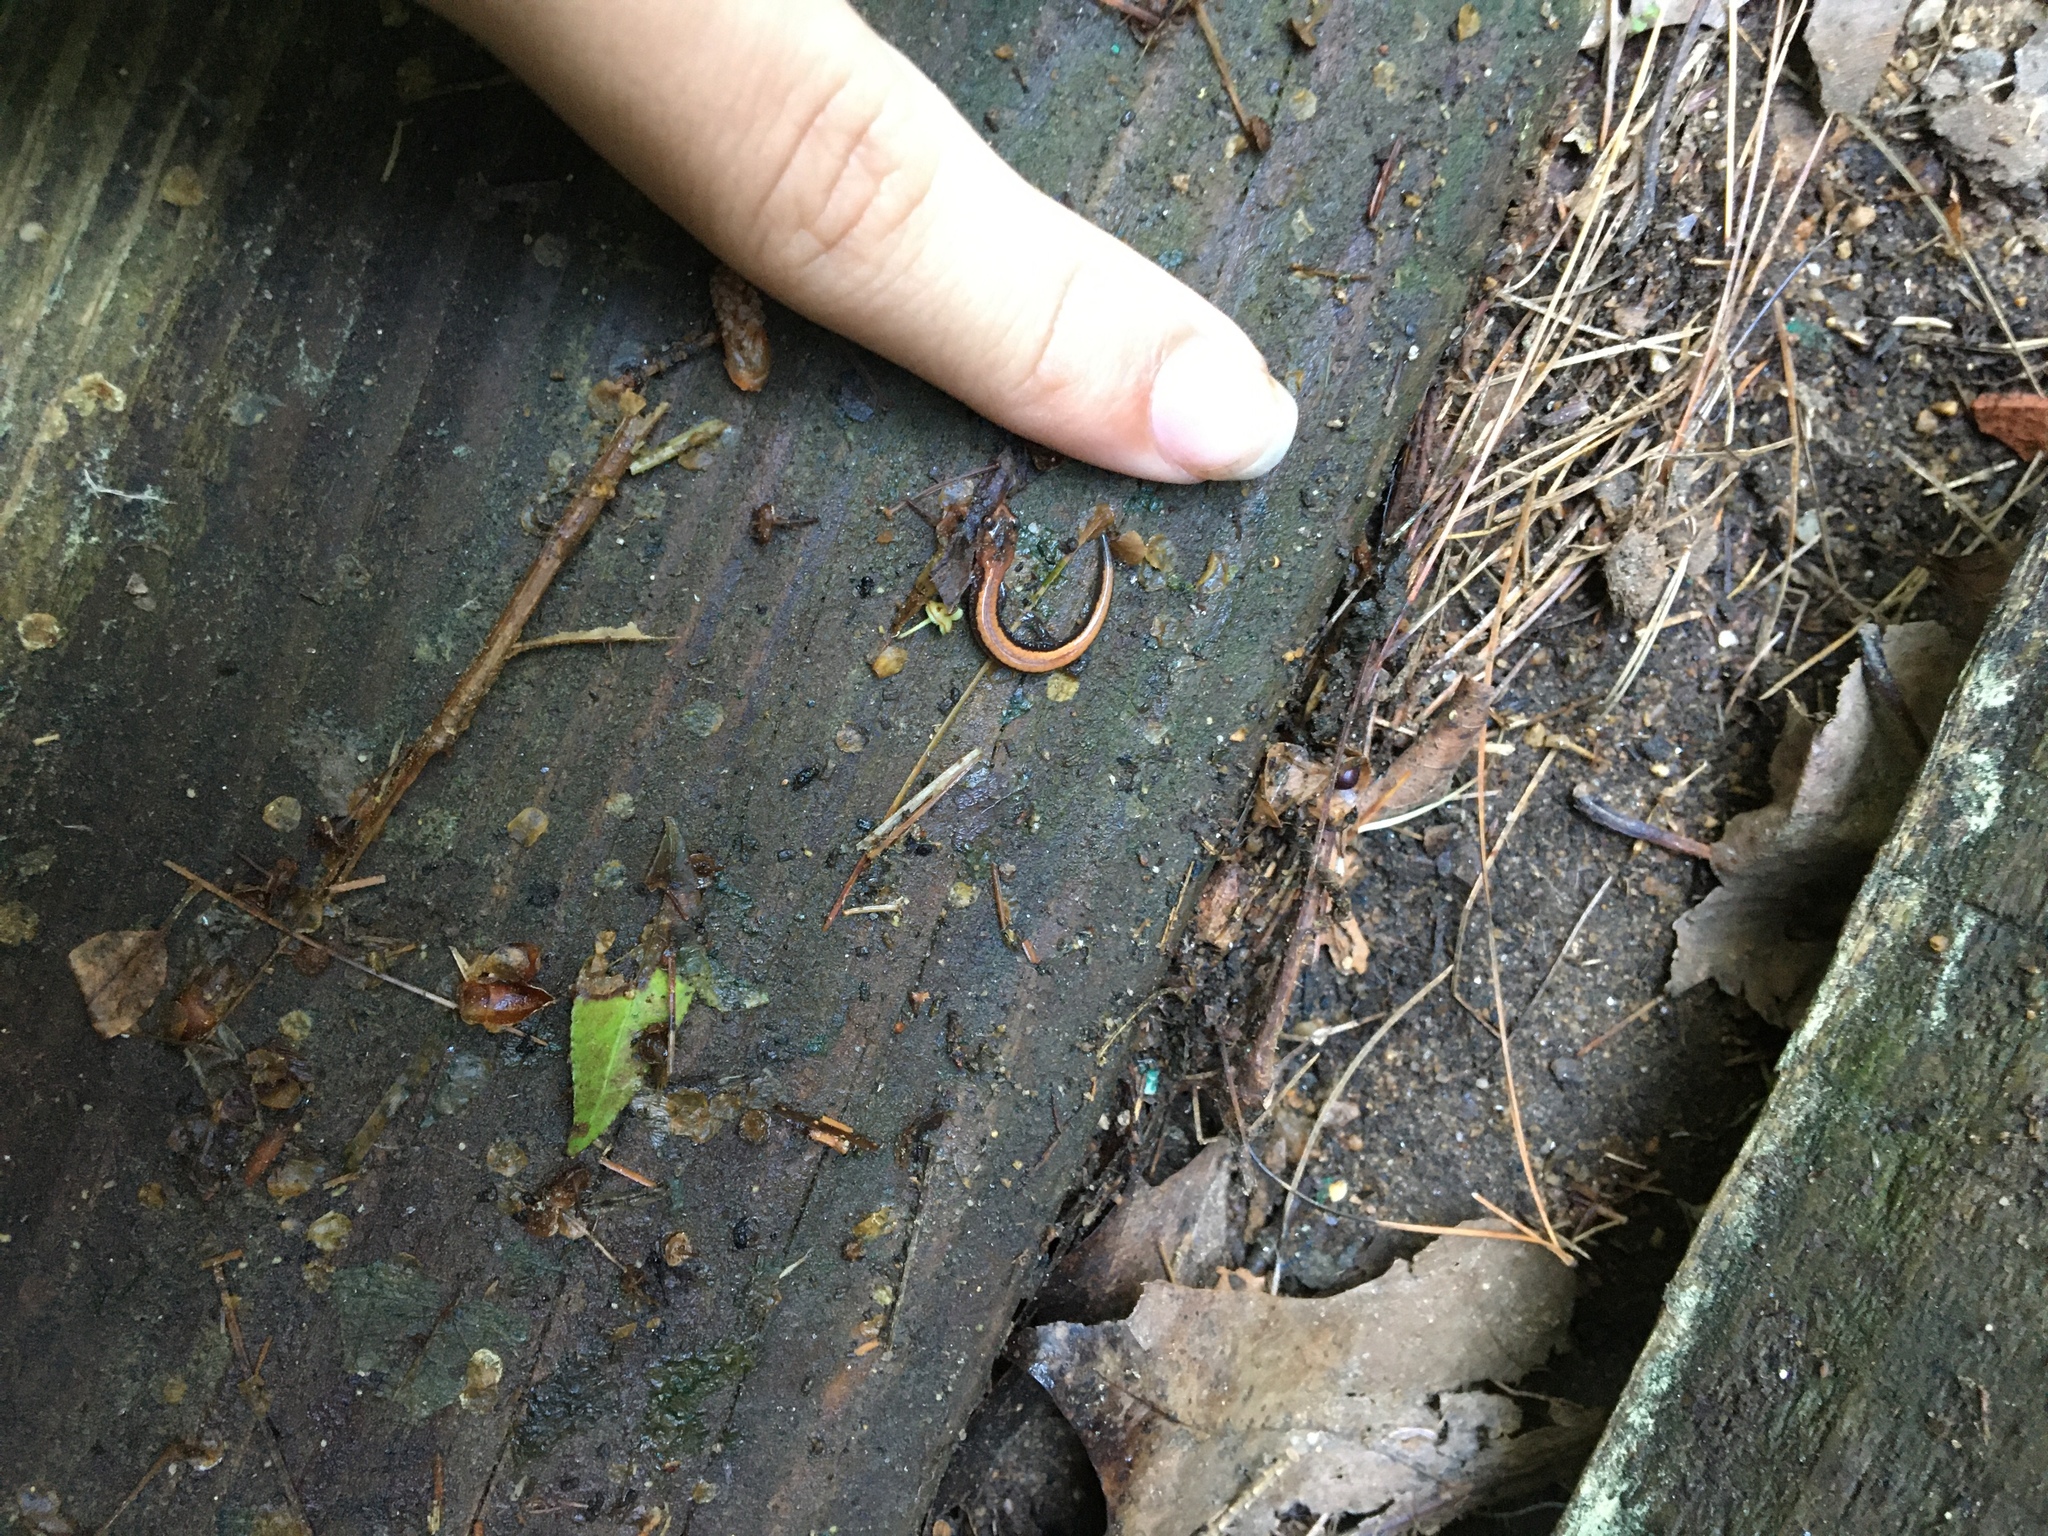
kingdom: Animalia
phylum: Chordata
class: Amphibia
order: Caudata
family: Plethodontidae
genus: Plethodon
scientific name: Plethodon cinereus
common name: Redback salamander
